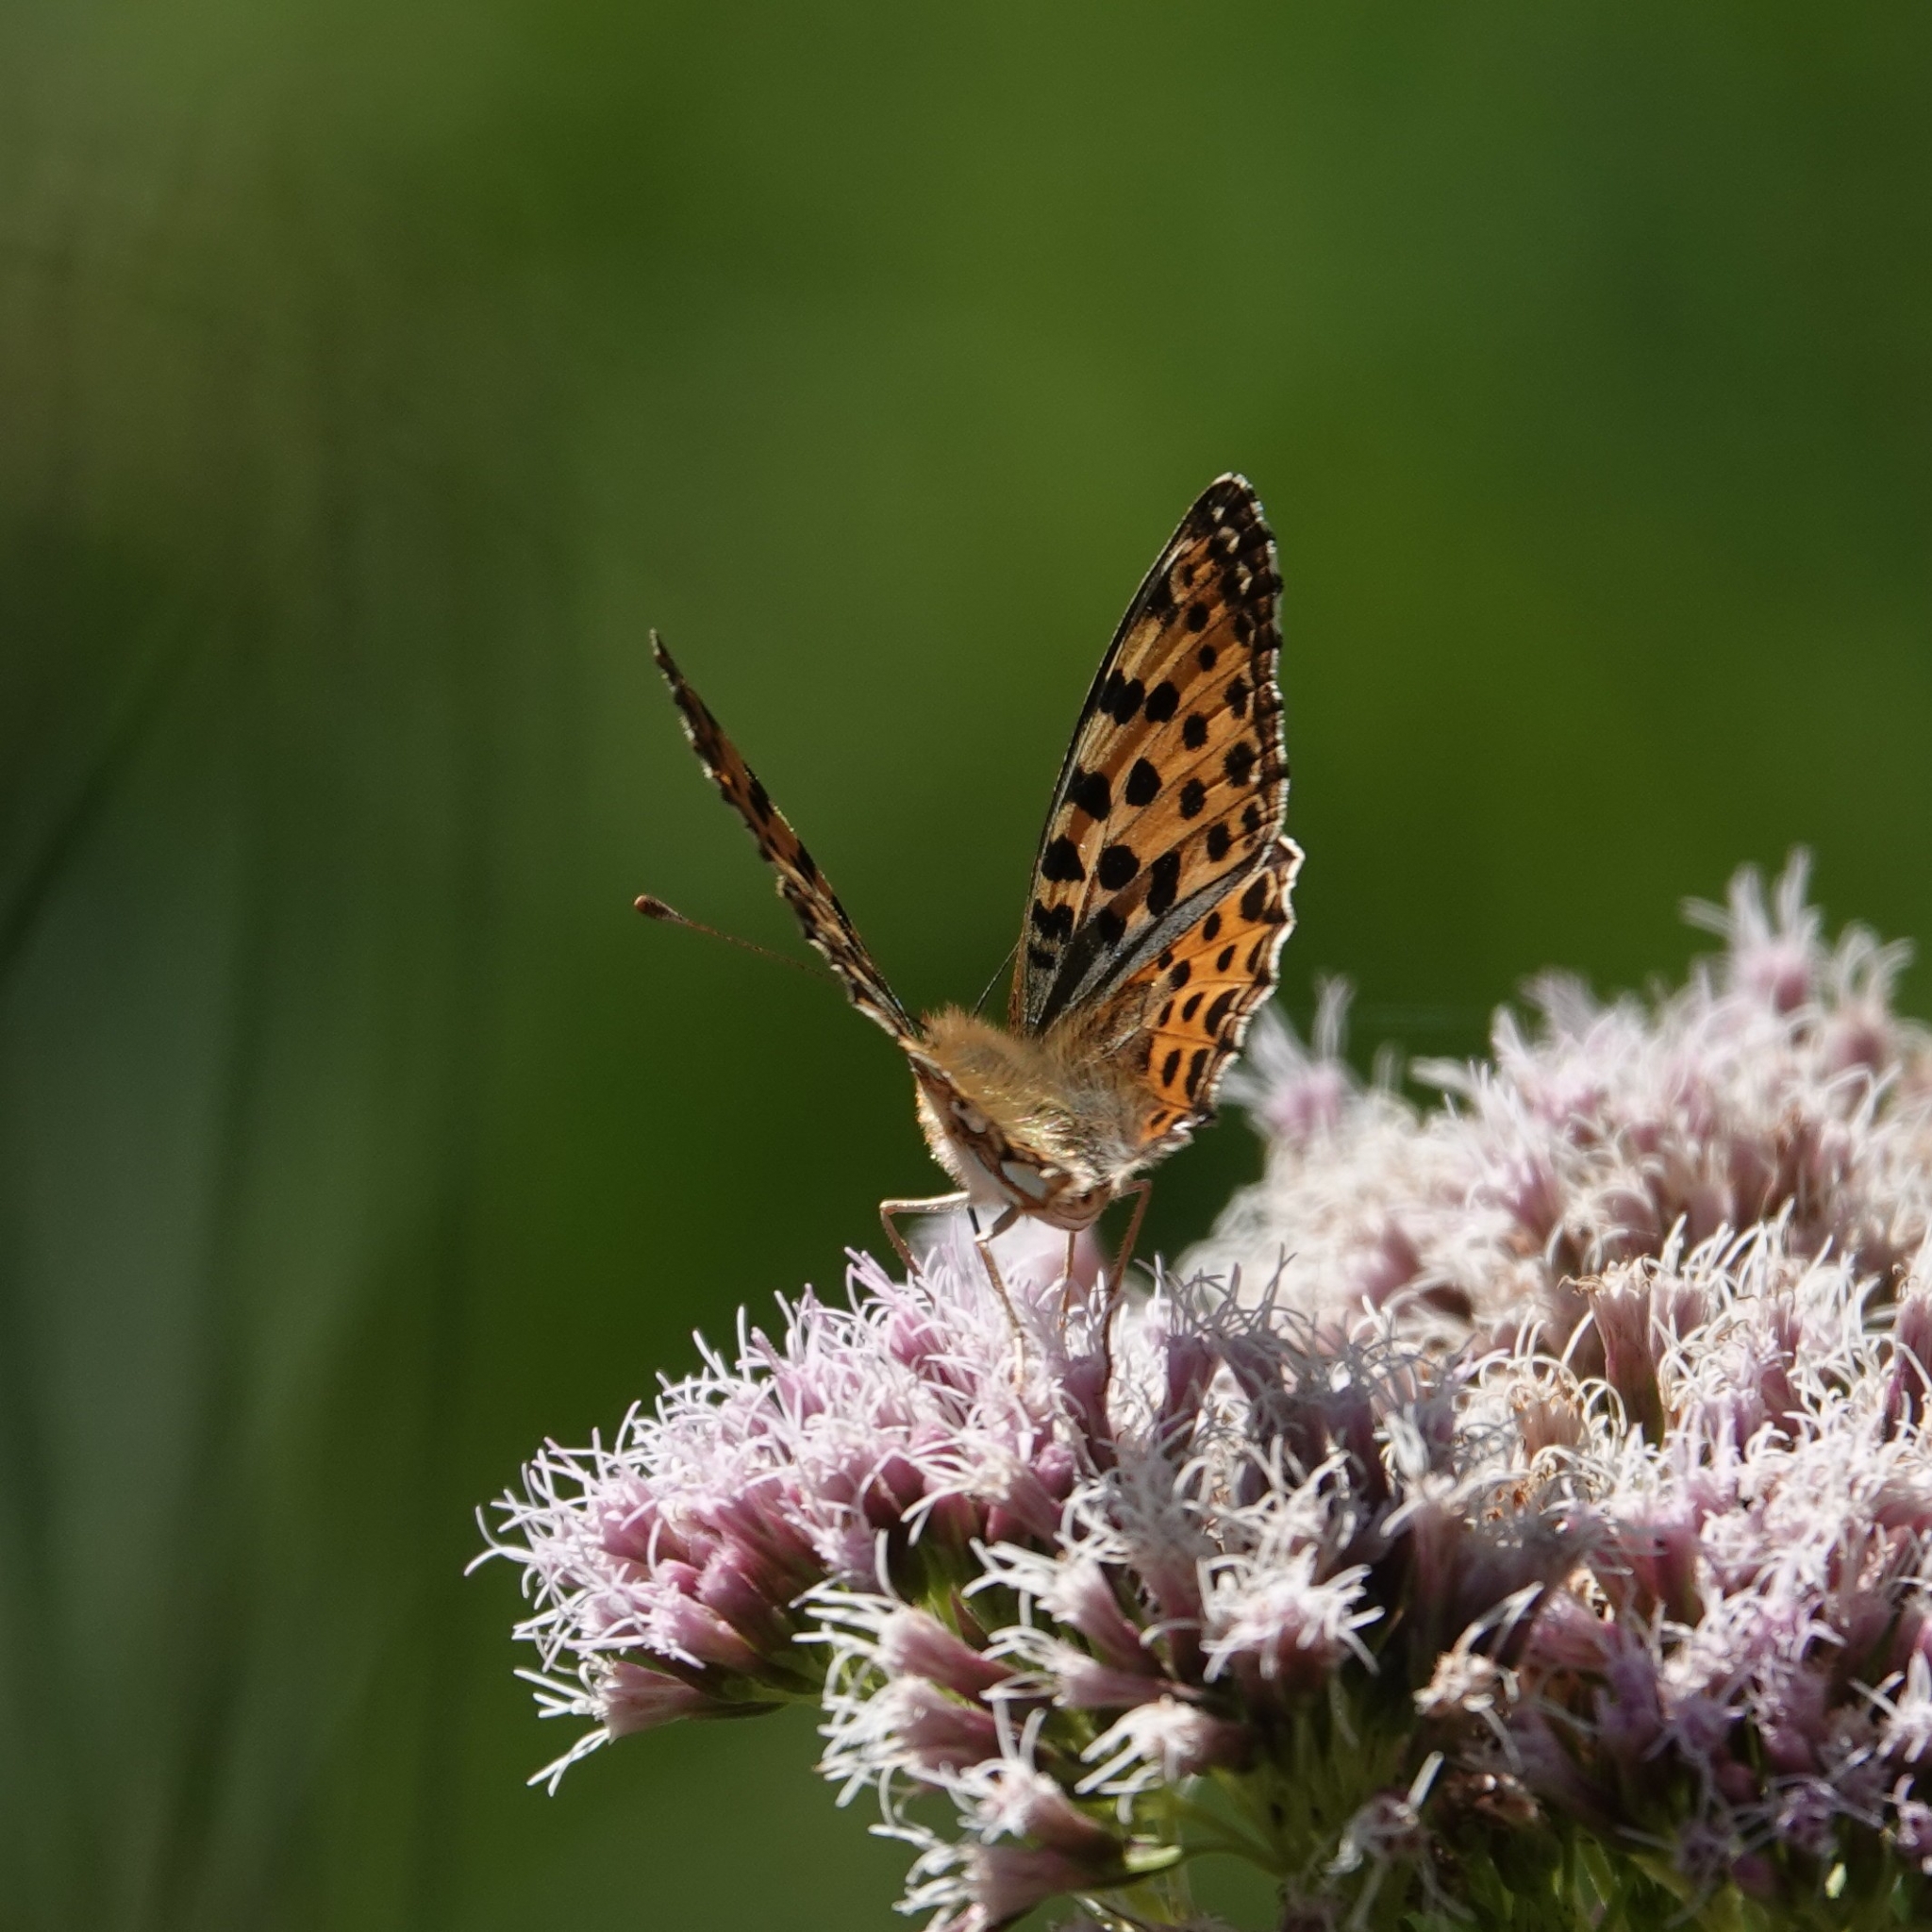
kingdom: Animalia
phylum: Arthropoda
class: Insecta
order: Lepidoptera
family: Nymphalidae
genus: Issoria
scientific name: Issoria lathonia
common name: Queen of spain fritillary
